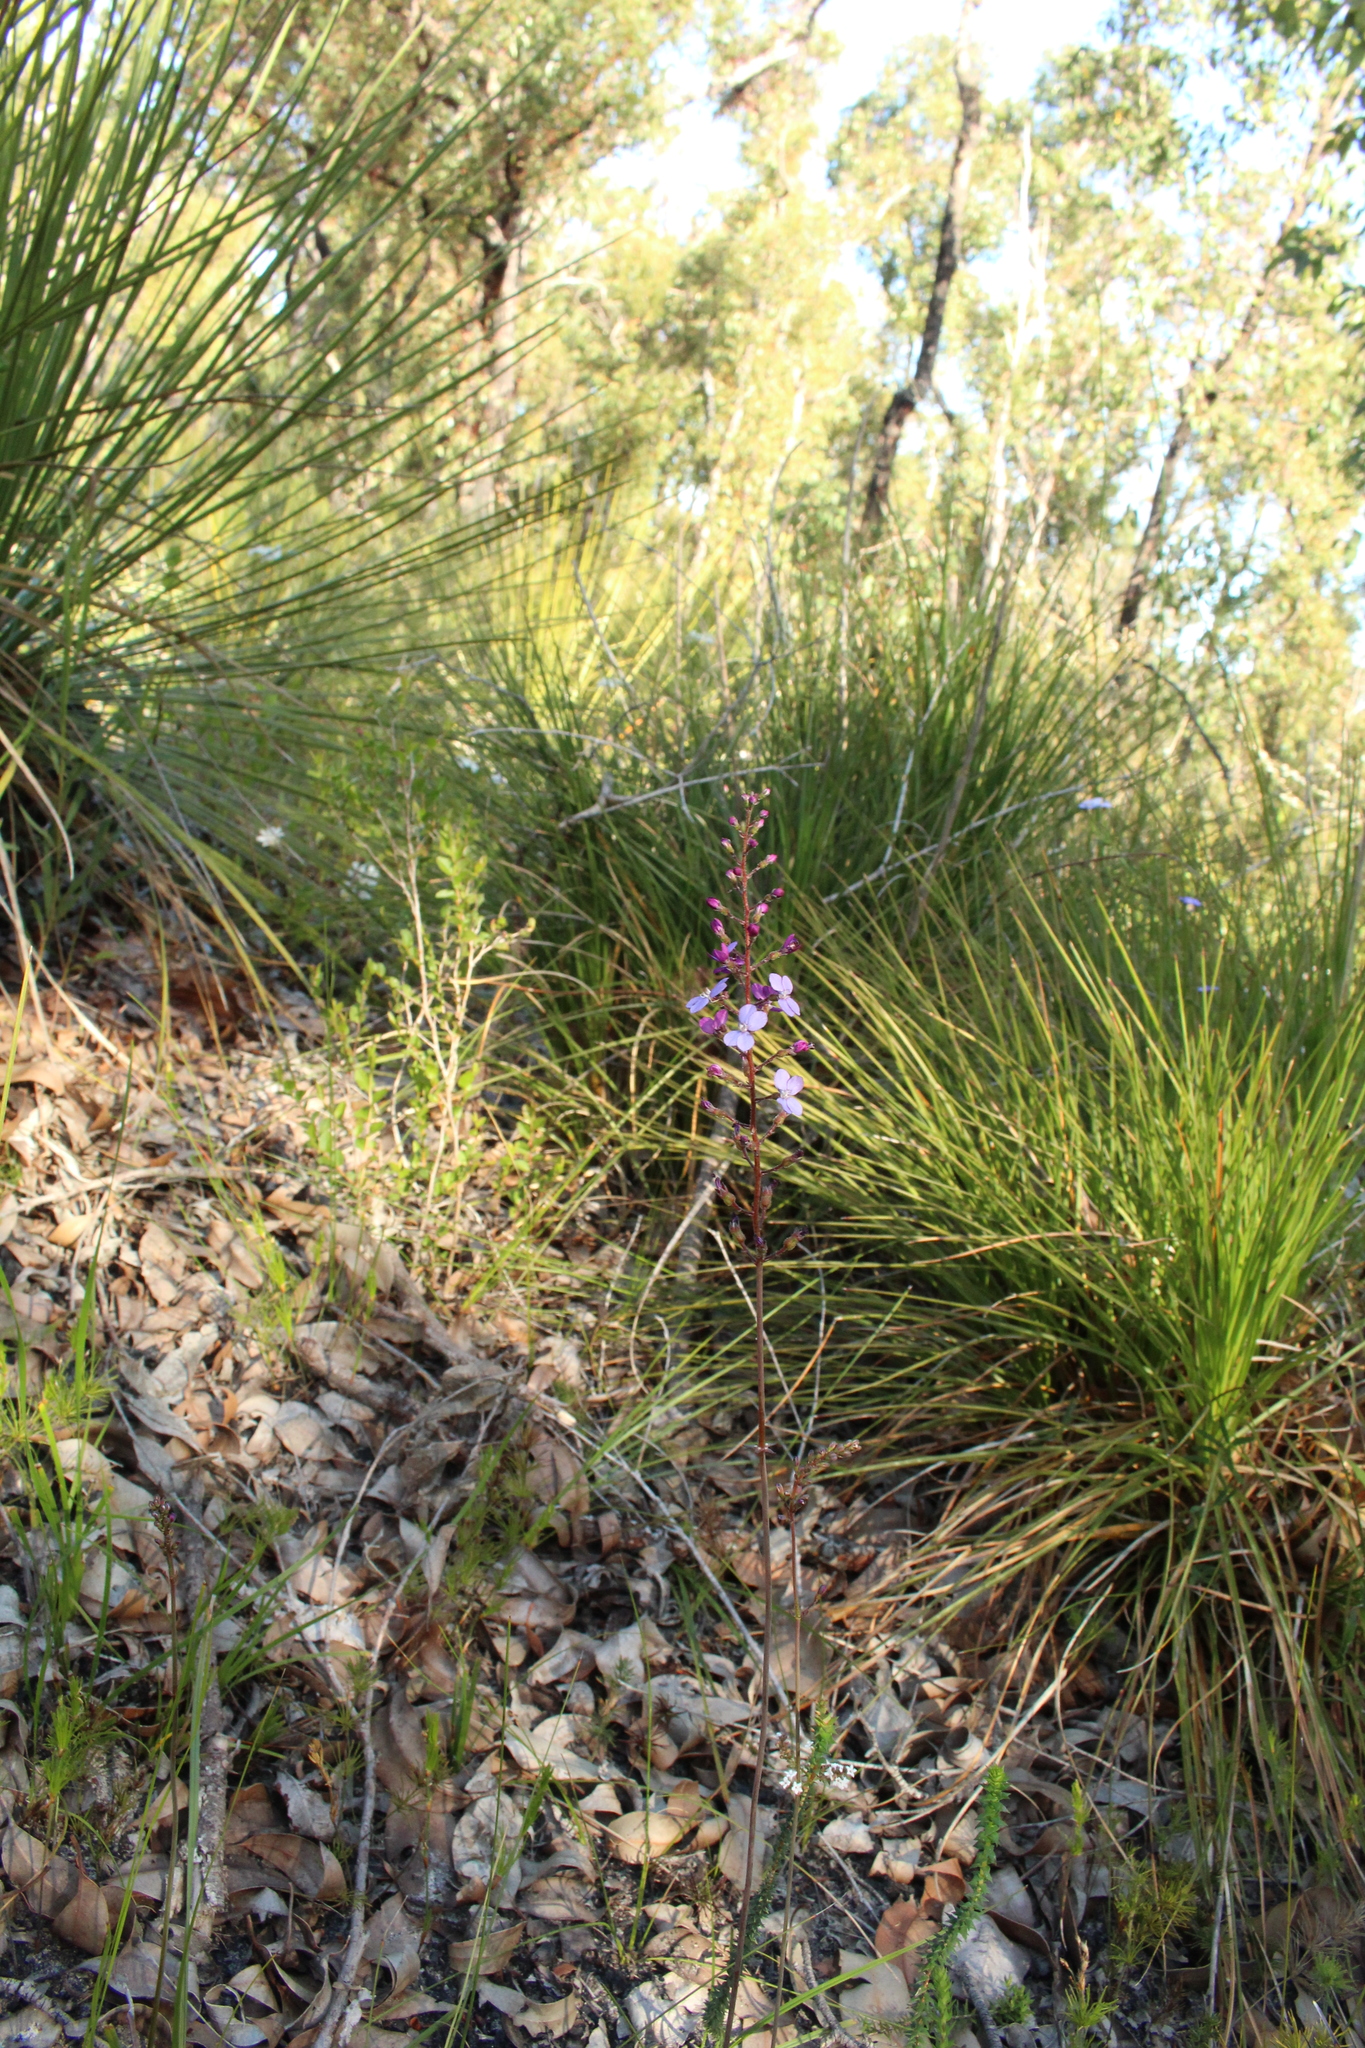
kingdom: Plantae
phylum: Tracheophyta
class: Magnoliopsida
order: Asterales
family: Stylidiaceae
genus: Stylidium
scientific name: Stylidium amoenum
